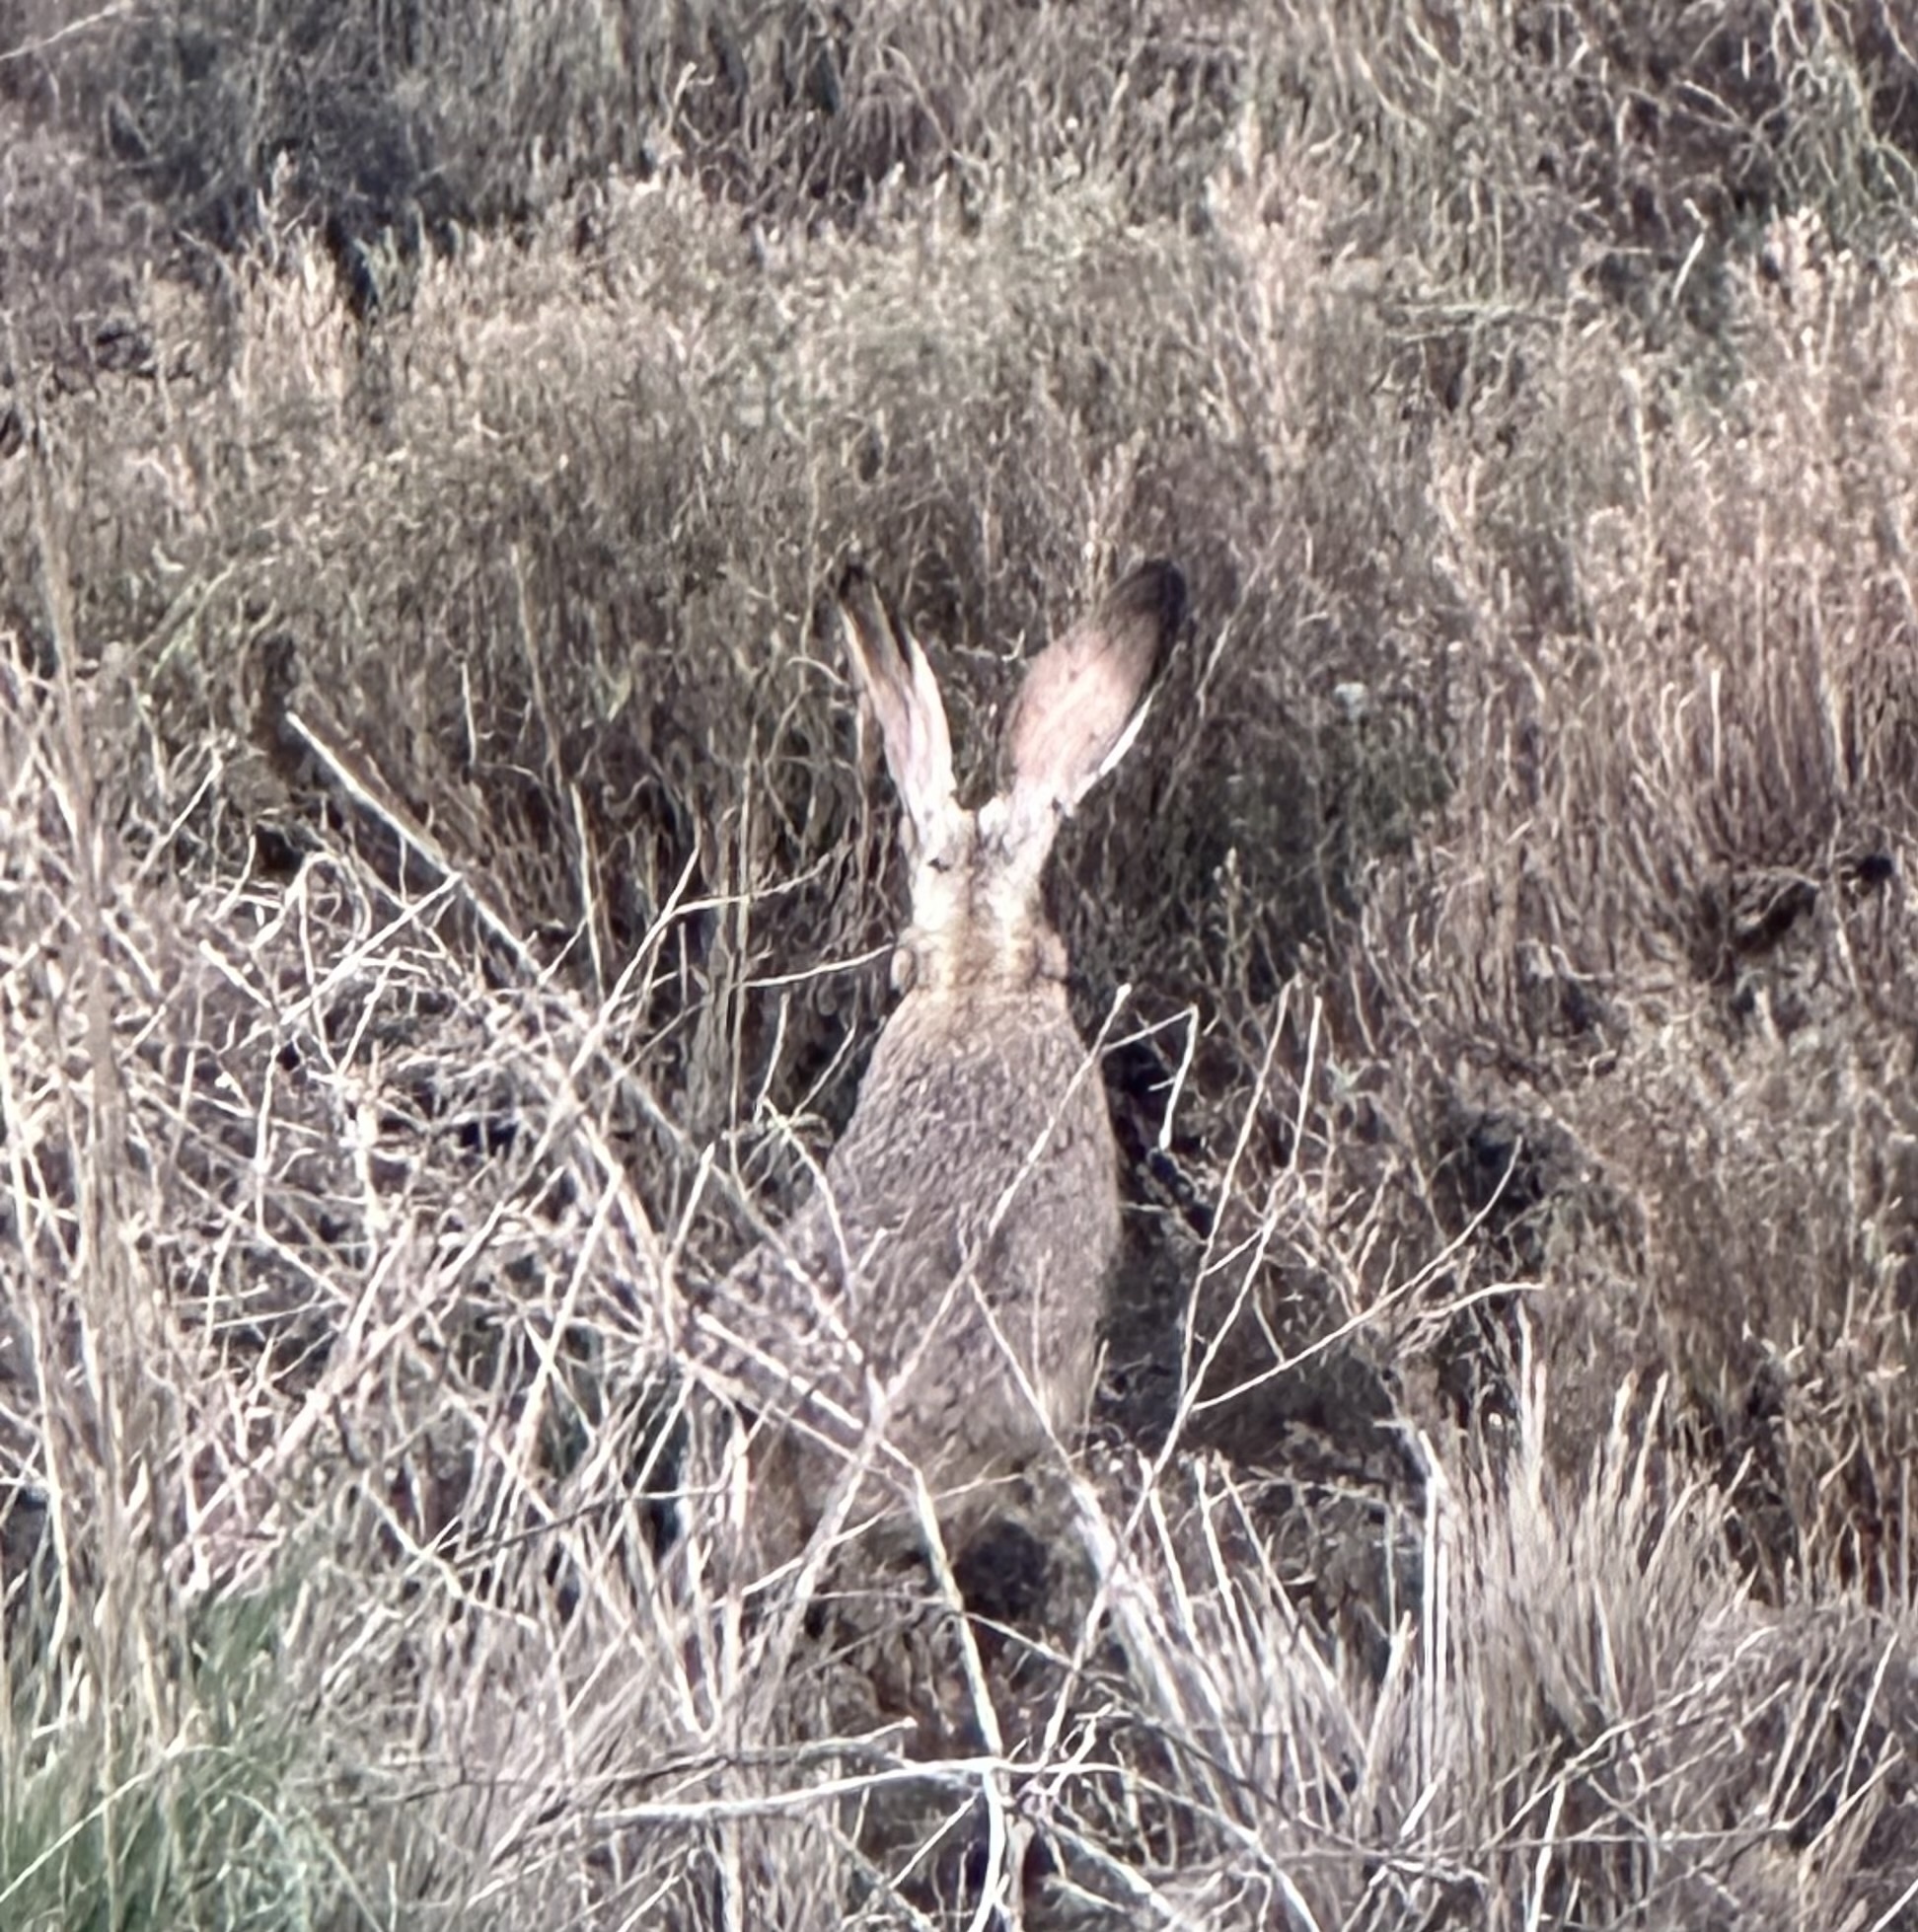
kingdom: Animalia
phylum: Chordata
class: Mammalia
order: Lagomorpha
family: Leporidae
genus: Lepus
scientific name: Lepus californicus
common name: Black-tailed jackrabbit
